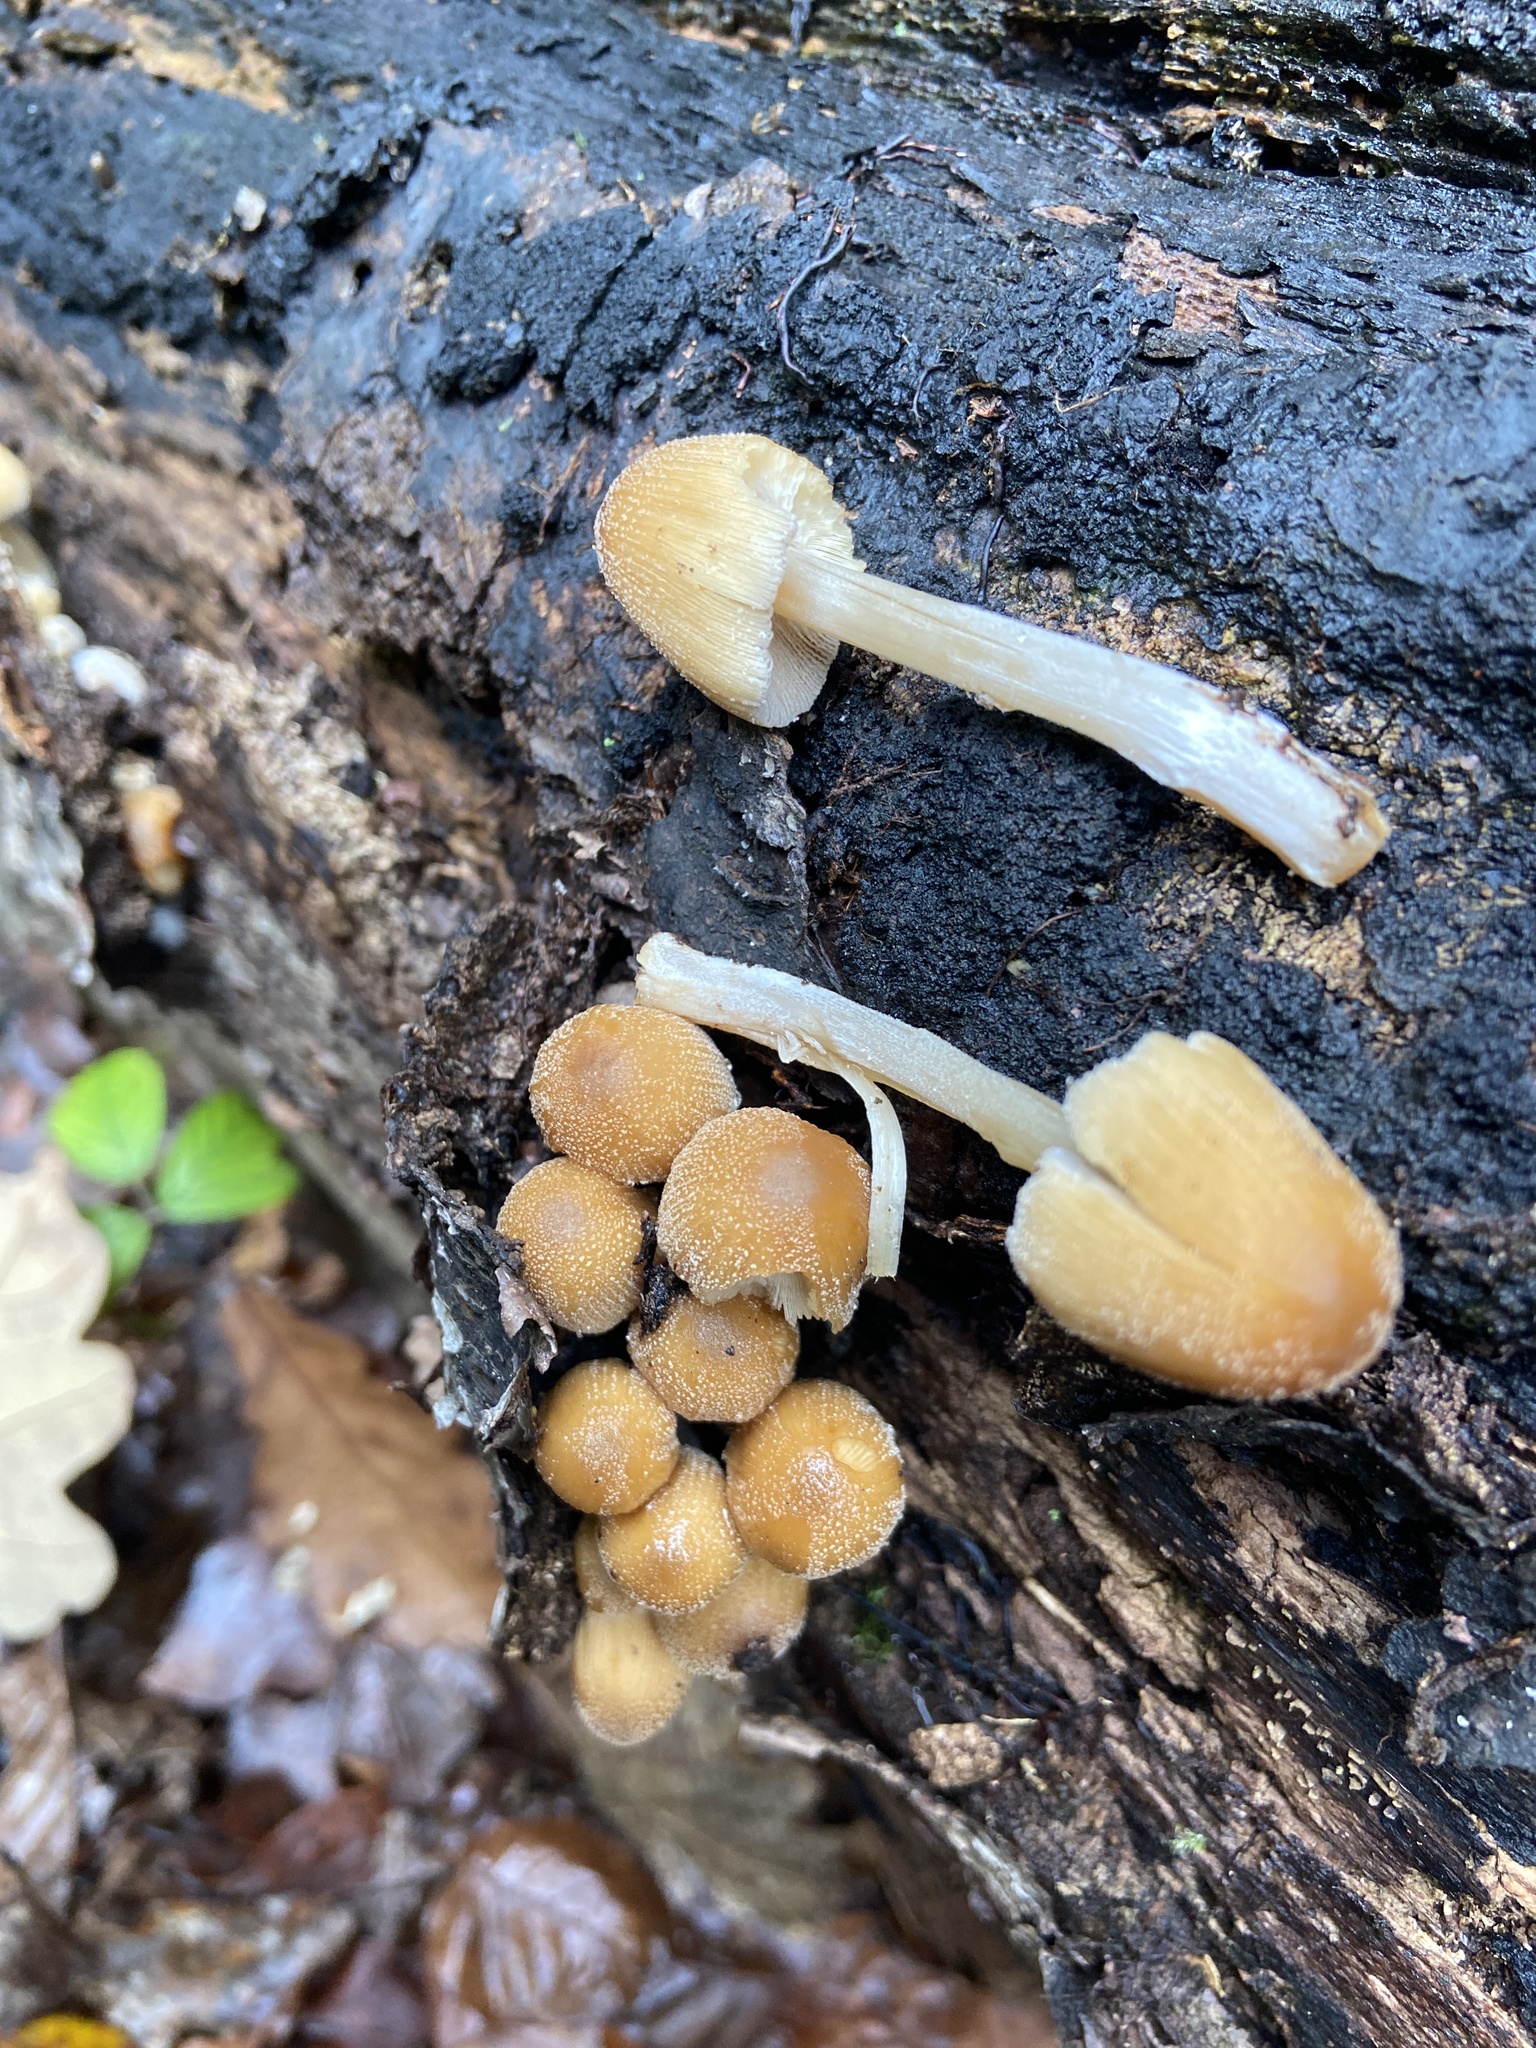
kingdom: Fungi
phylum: Basidiomycota
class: Agaricomycetes
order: Agaricales
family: Psathyrellaceae
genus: Coprinellus
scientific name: Coprinellus micaceus
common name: Glistening ink-cap
